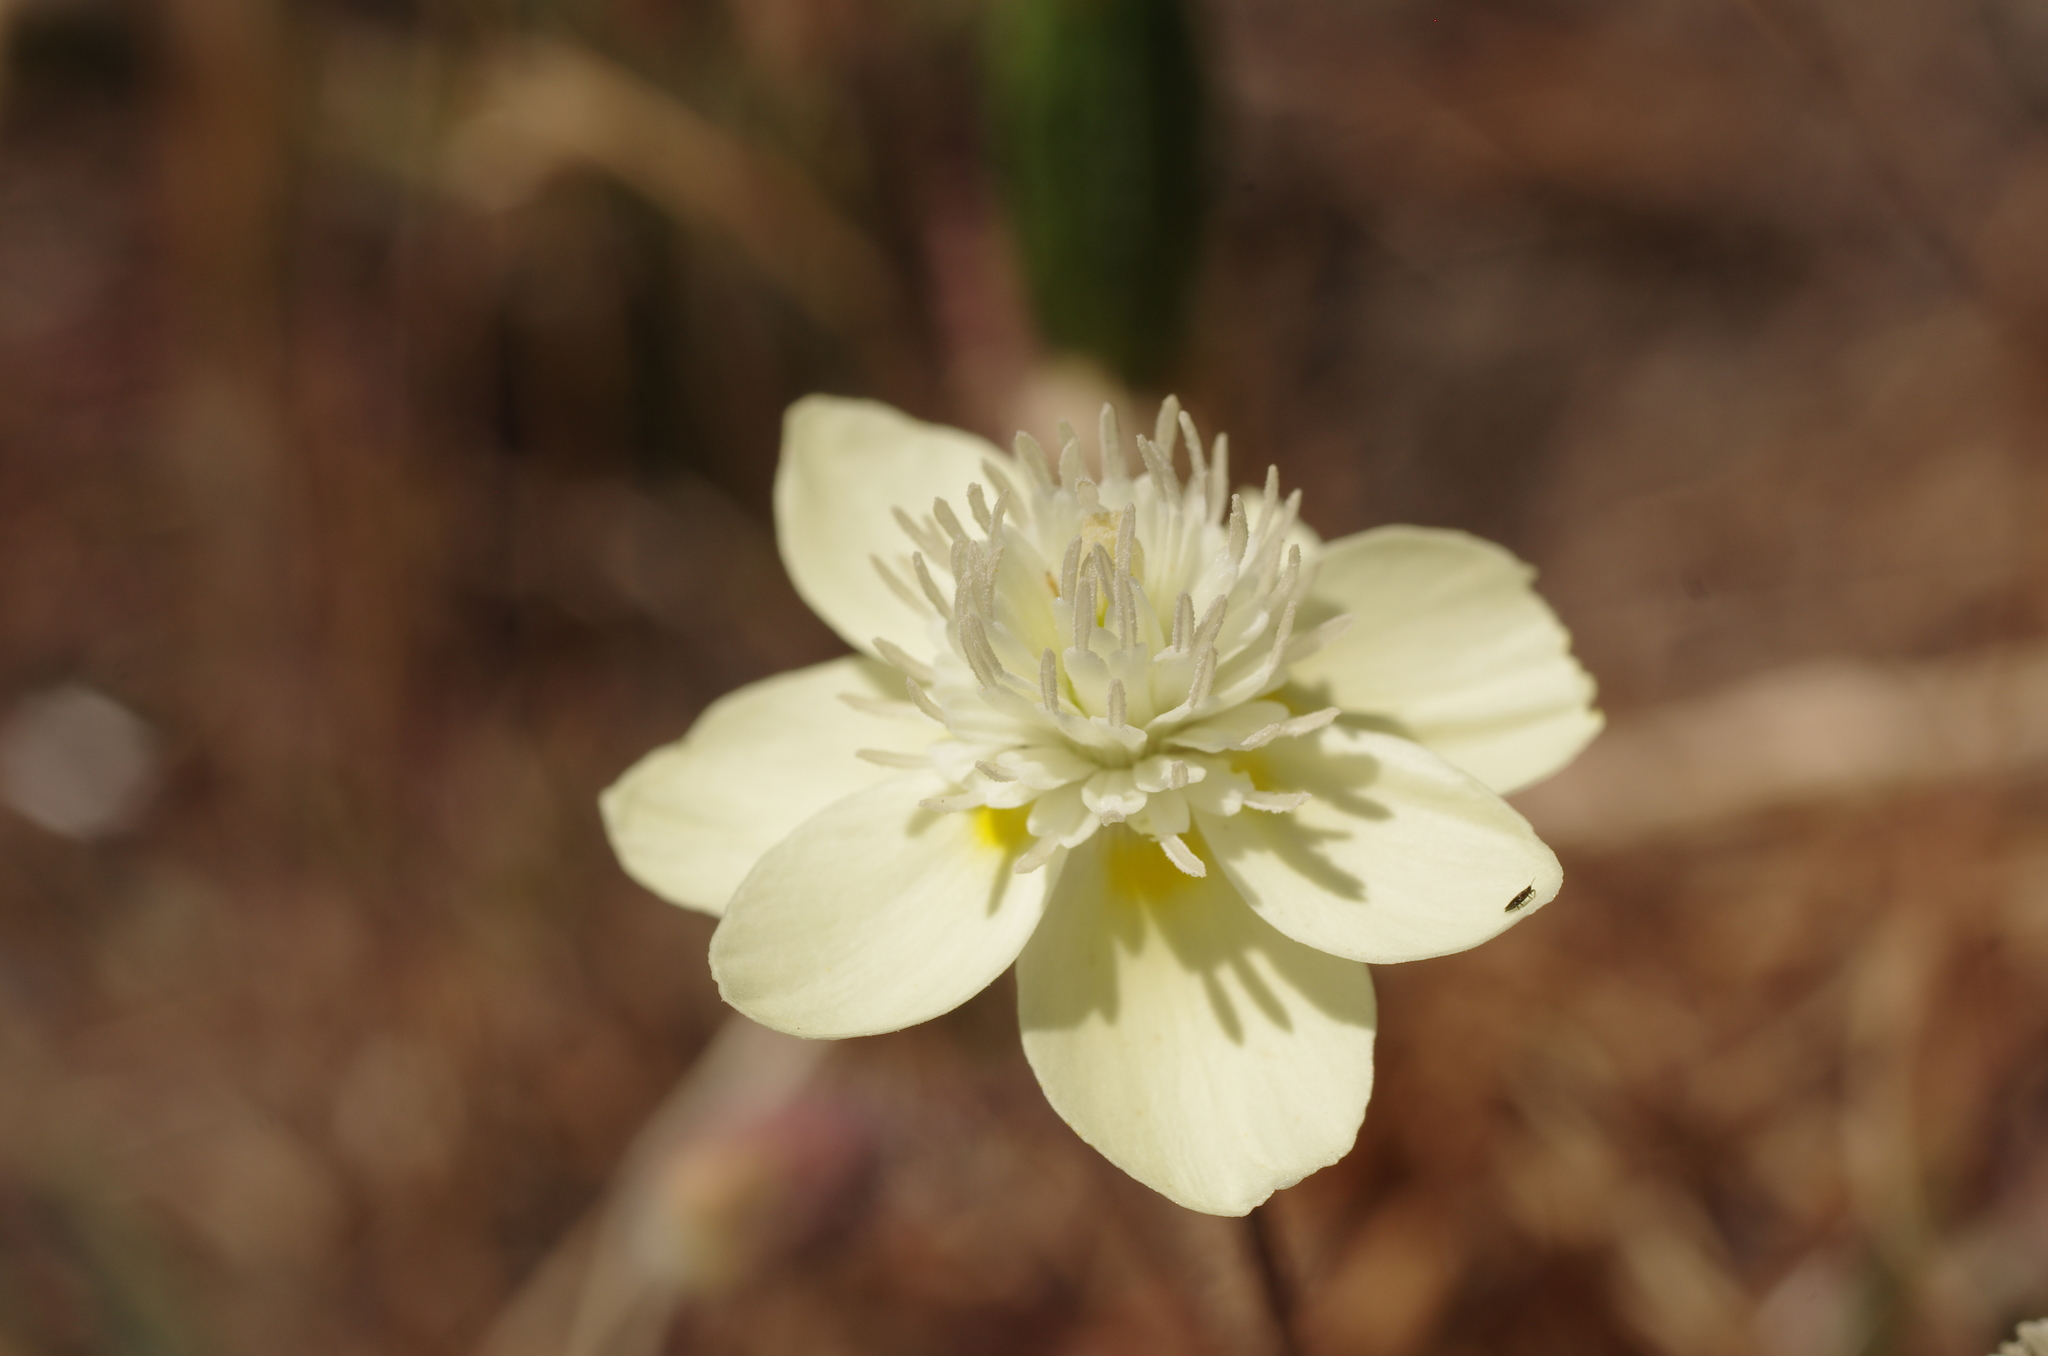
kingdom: Plantae
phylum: Tracheophyta
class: Magnoliopsida
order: Ranunculales
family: Papaveraceae
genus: Platystemon
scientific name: Platystemon californicus
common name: Cream-cups
